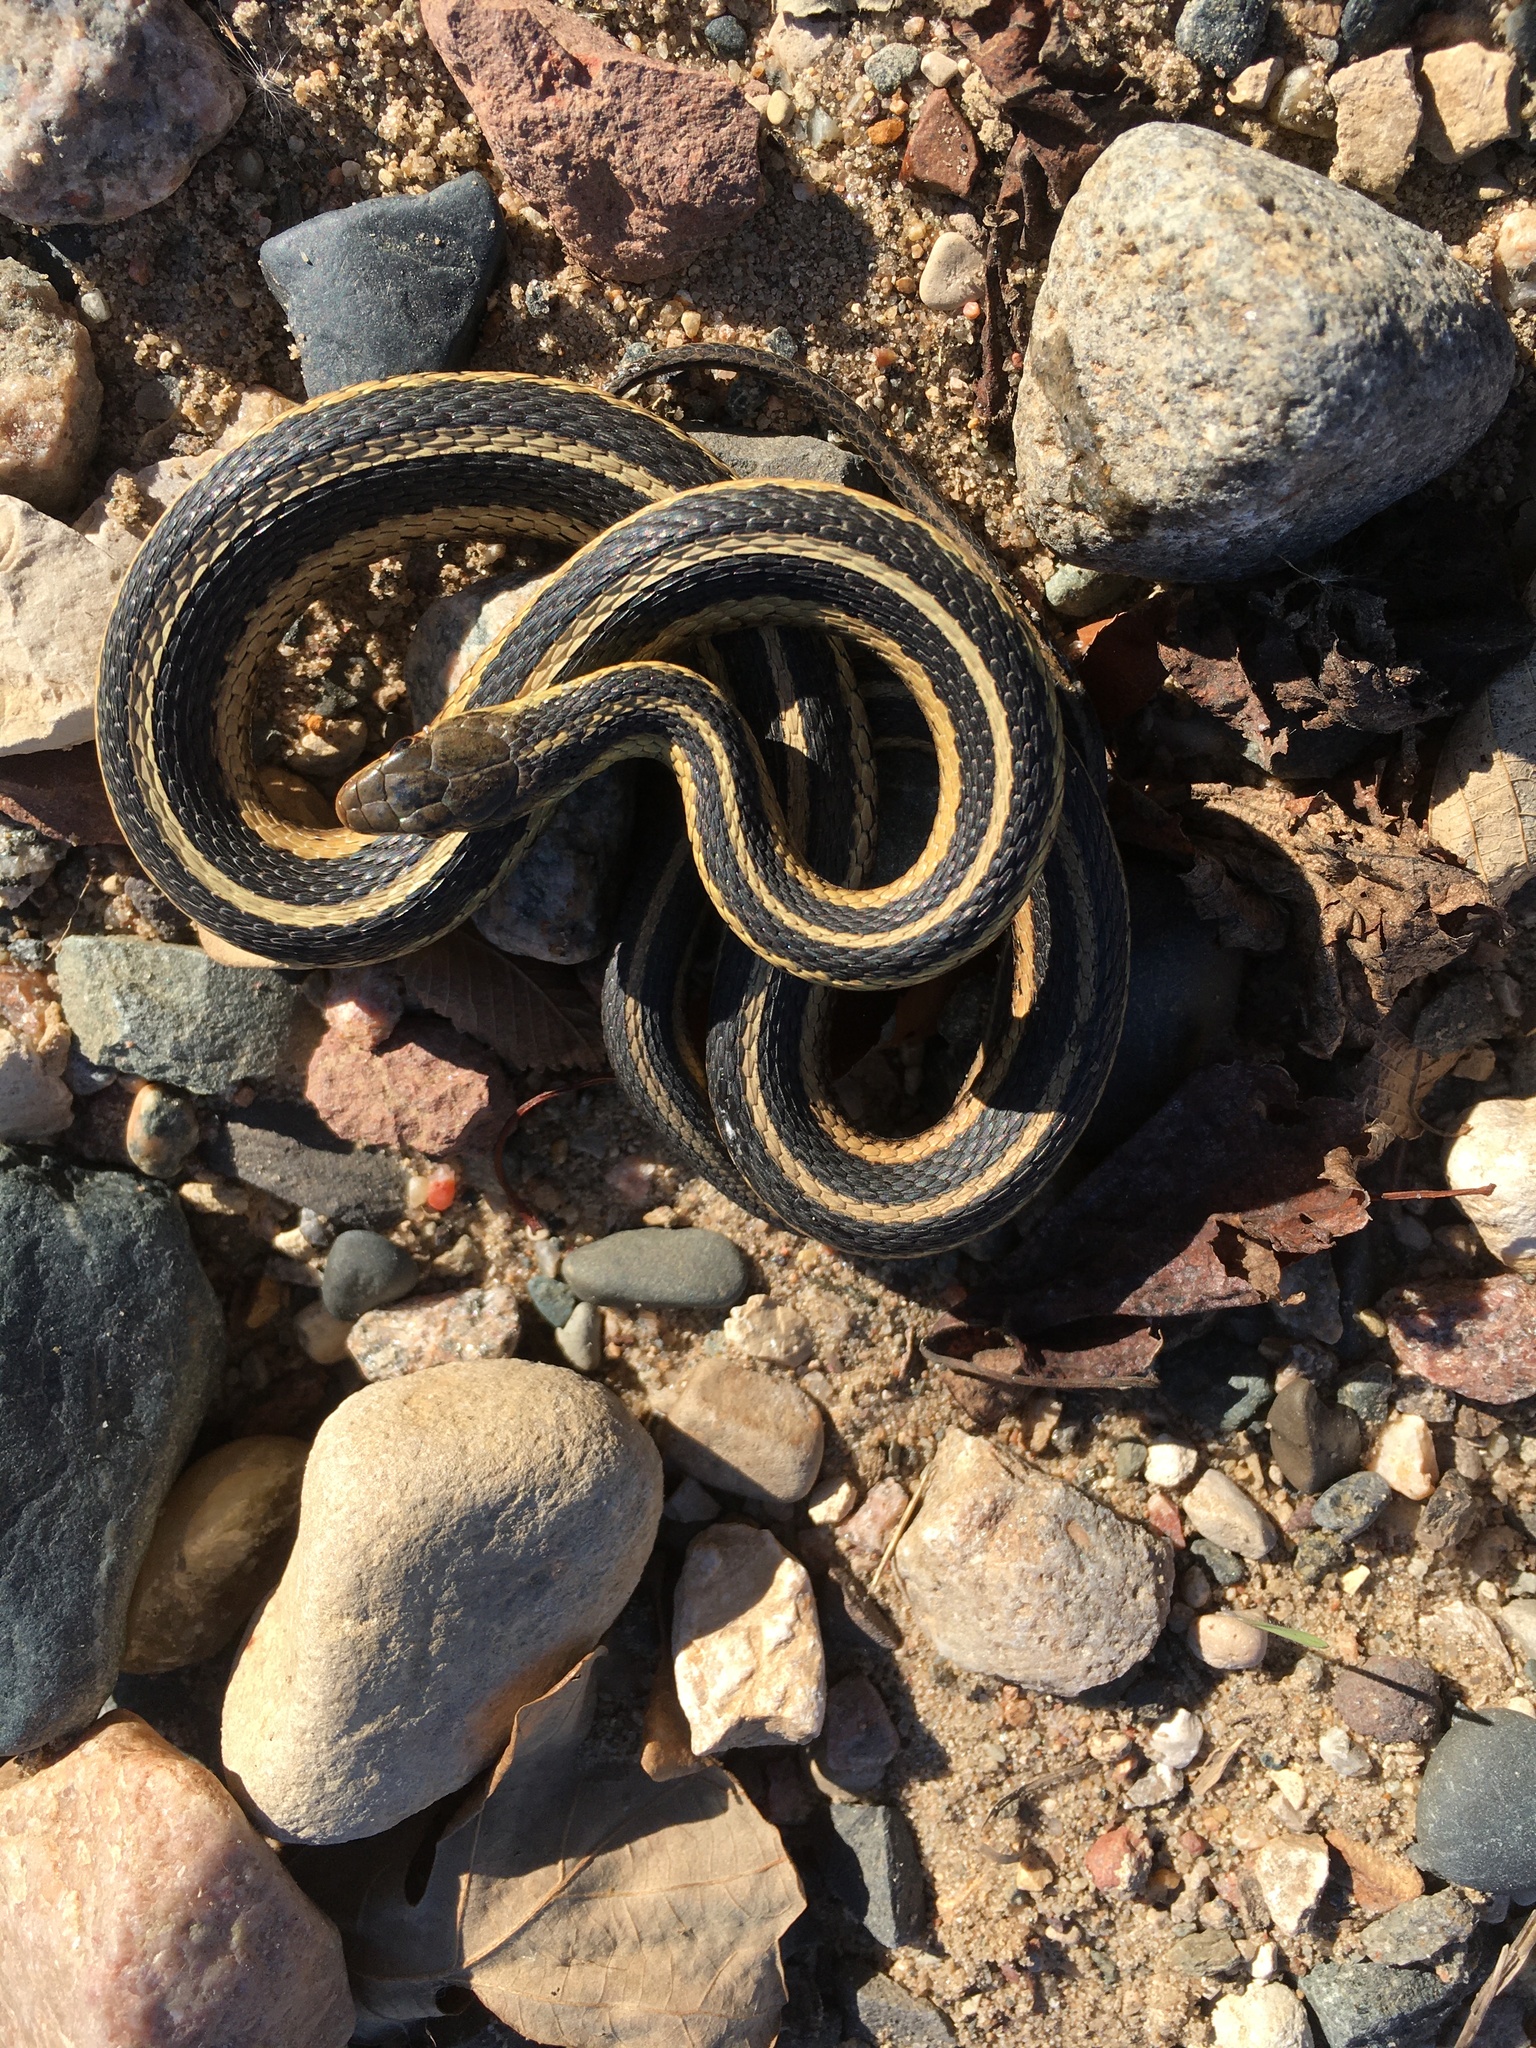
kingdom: Animalia
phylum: Chordata
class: Squamata
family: Colubridae
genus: Thamnophis
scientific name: Thamnophis sirtalis
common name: Common garter snake
